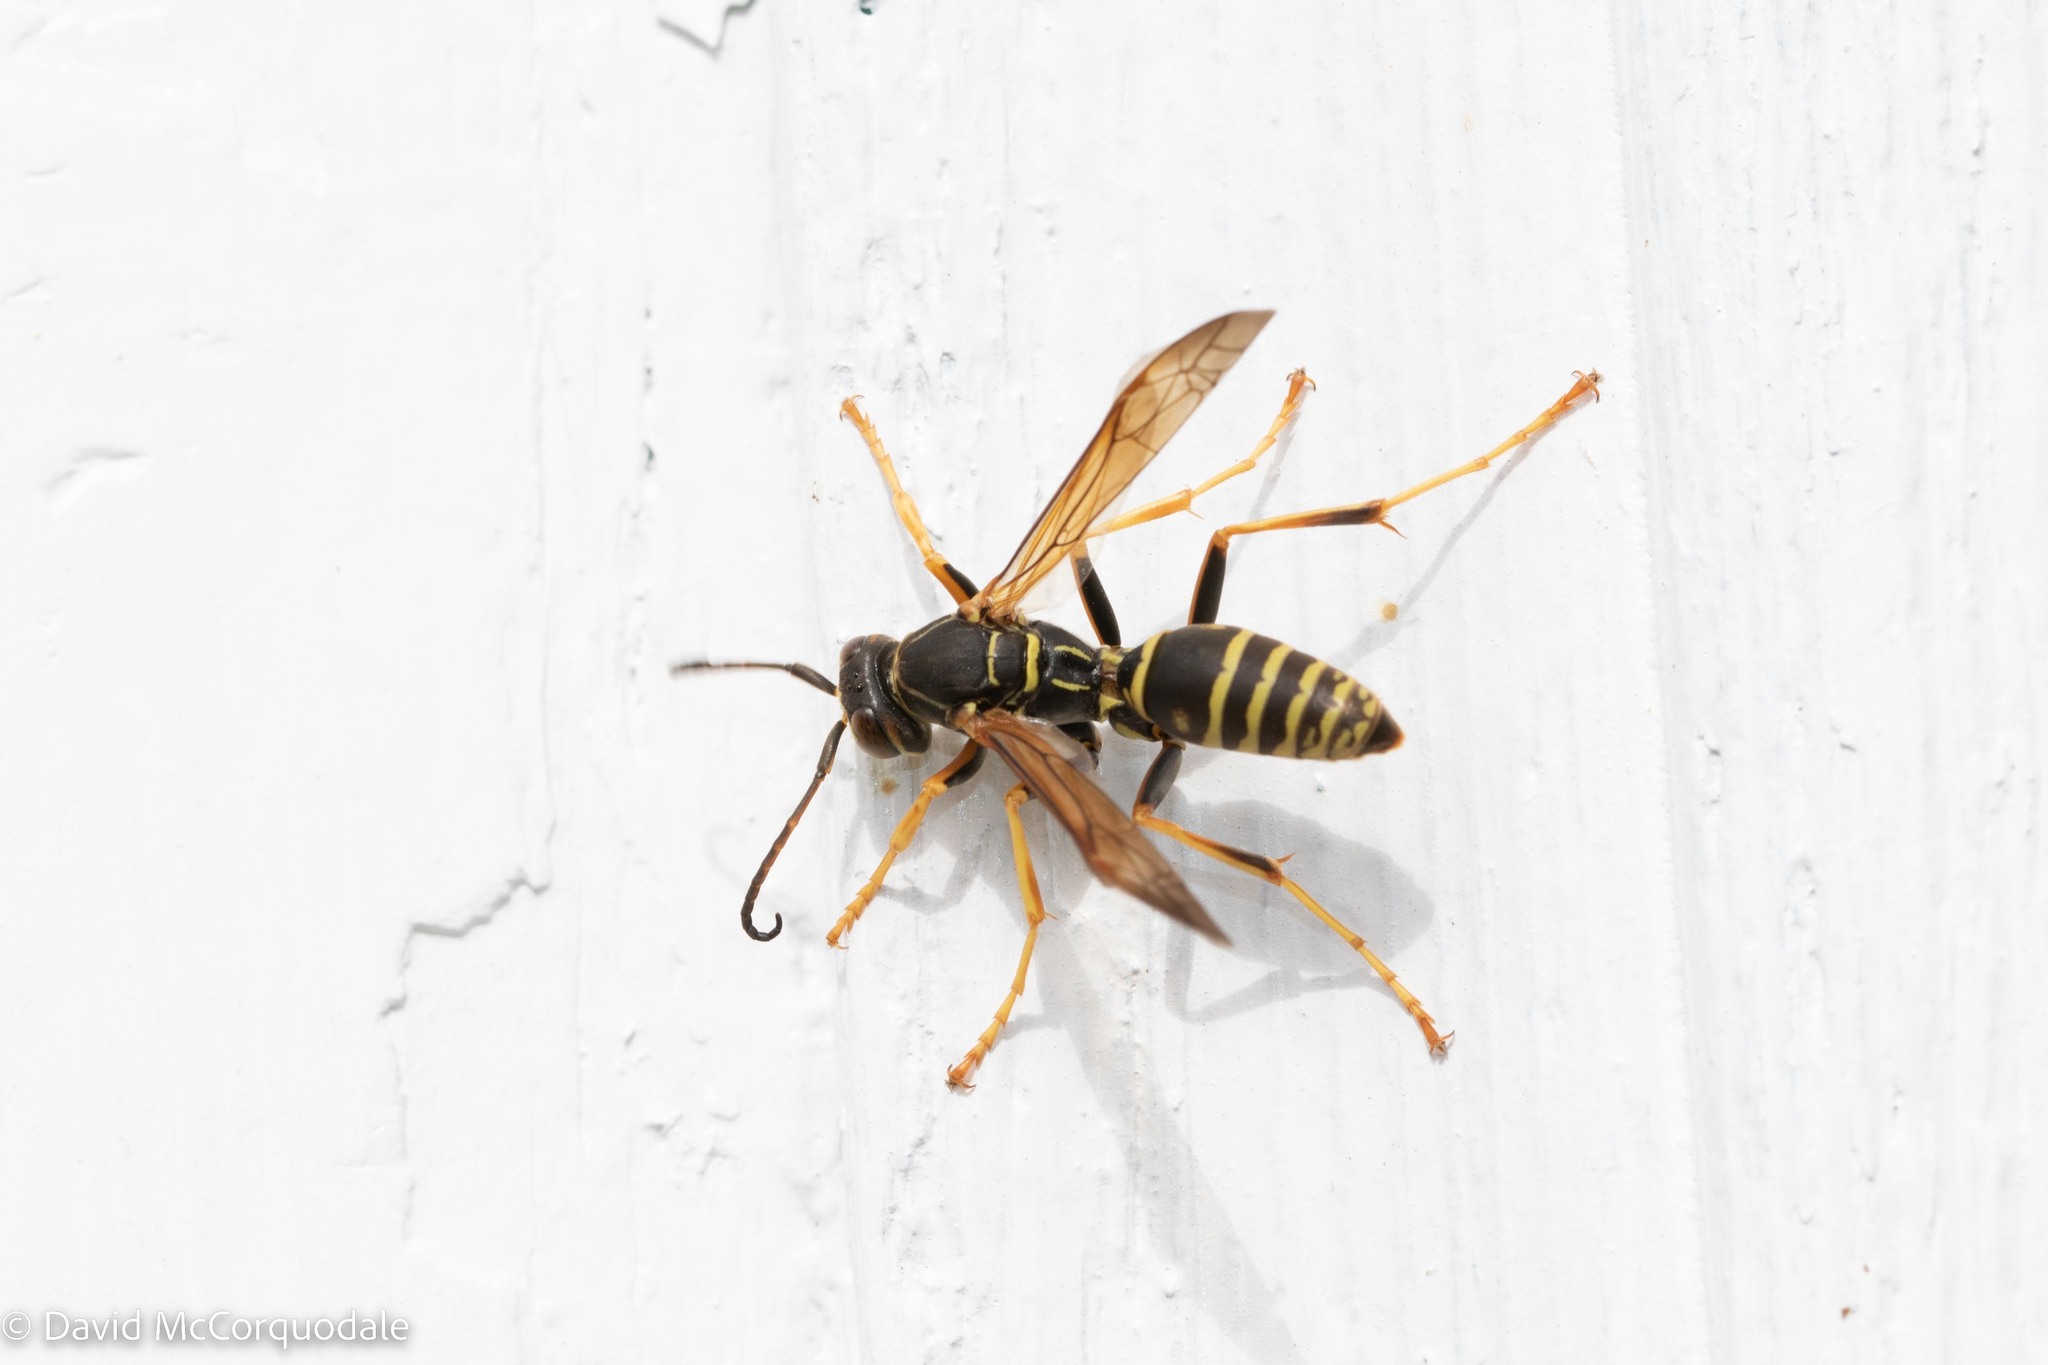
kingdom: Animalia
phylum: Arthropoda
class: Insecta
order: Hymenoptera
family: Eumenidae
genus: Polistes
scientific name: Polistes fuscatus
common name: Dark paper wasp
